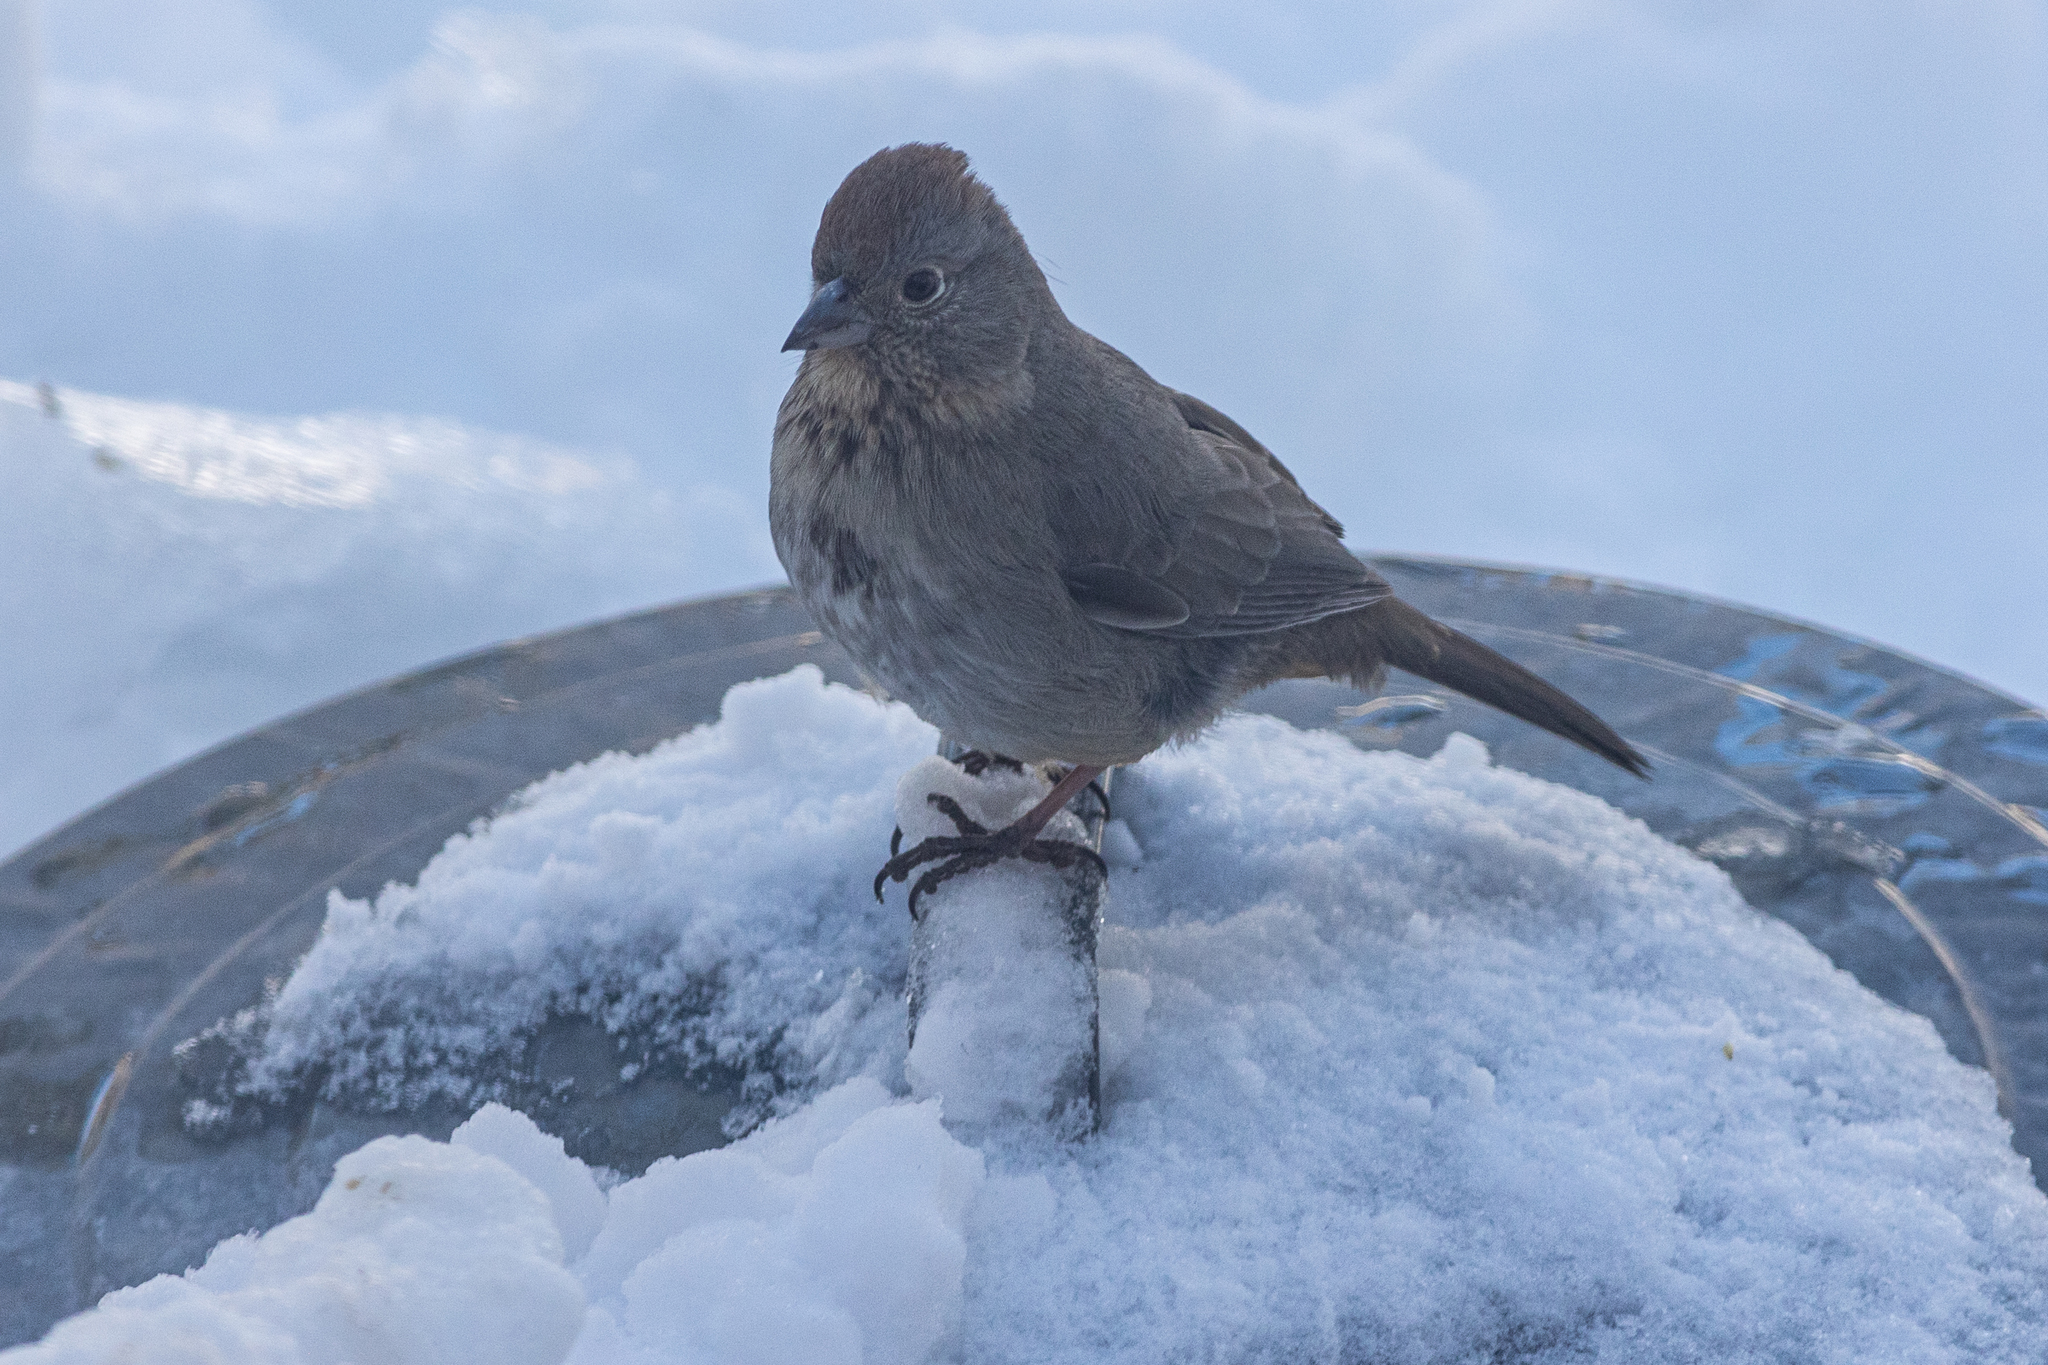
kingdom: Animalia
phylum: Chordata
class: Aves
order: Passeriformes
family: Passerellidae
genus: Melozone
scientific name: Melozone fusca
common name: Canyon towhee
